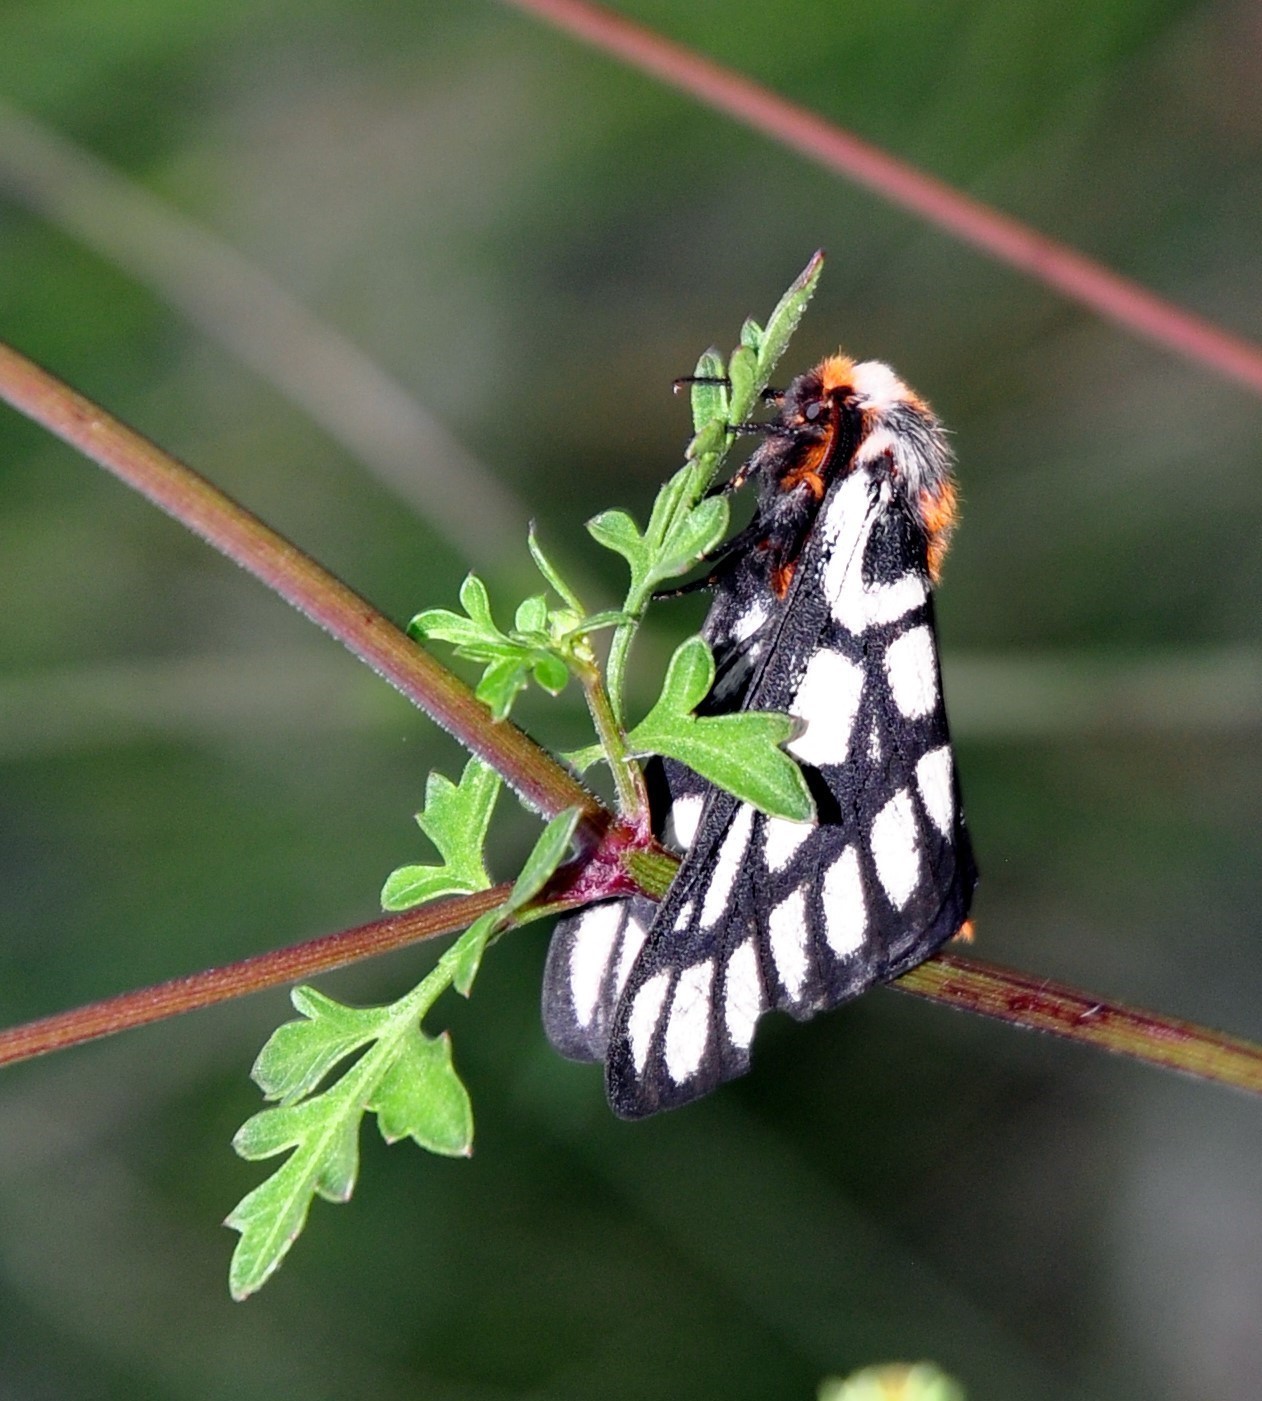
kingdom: Animalia
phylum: Arthropoda
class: Insecta
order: Lepidoptera
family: Saturniidae
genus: Hemileuca
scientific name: Hemileuca chinatiensis
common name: Chinati sheepmoth
